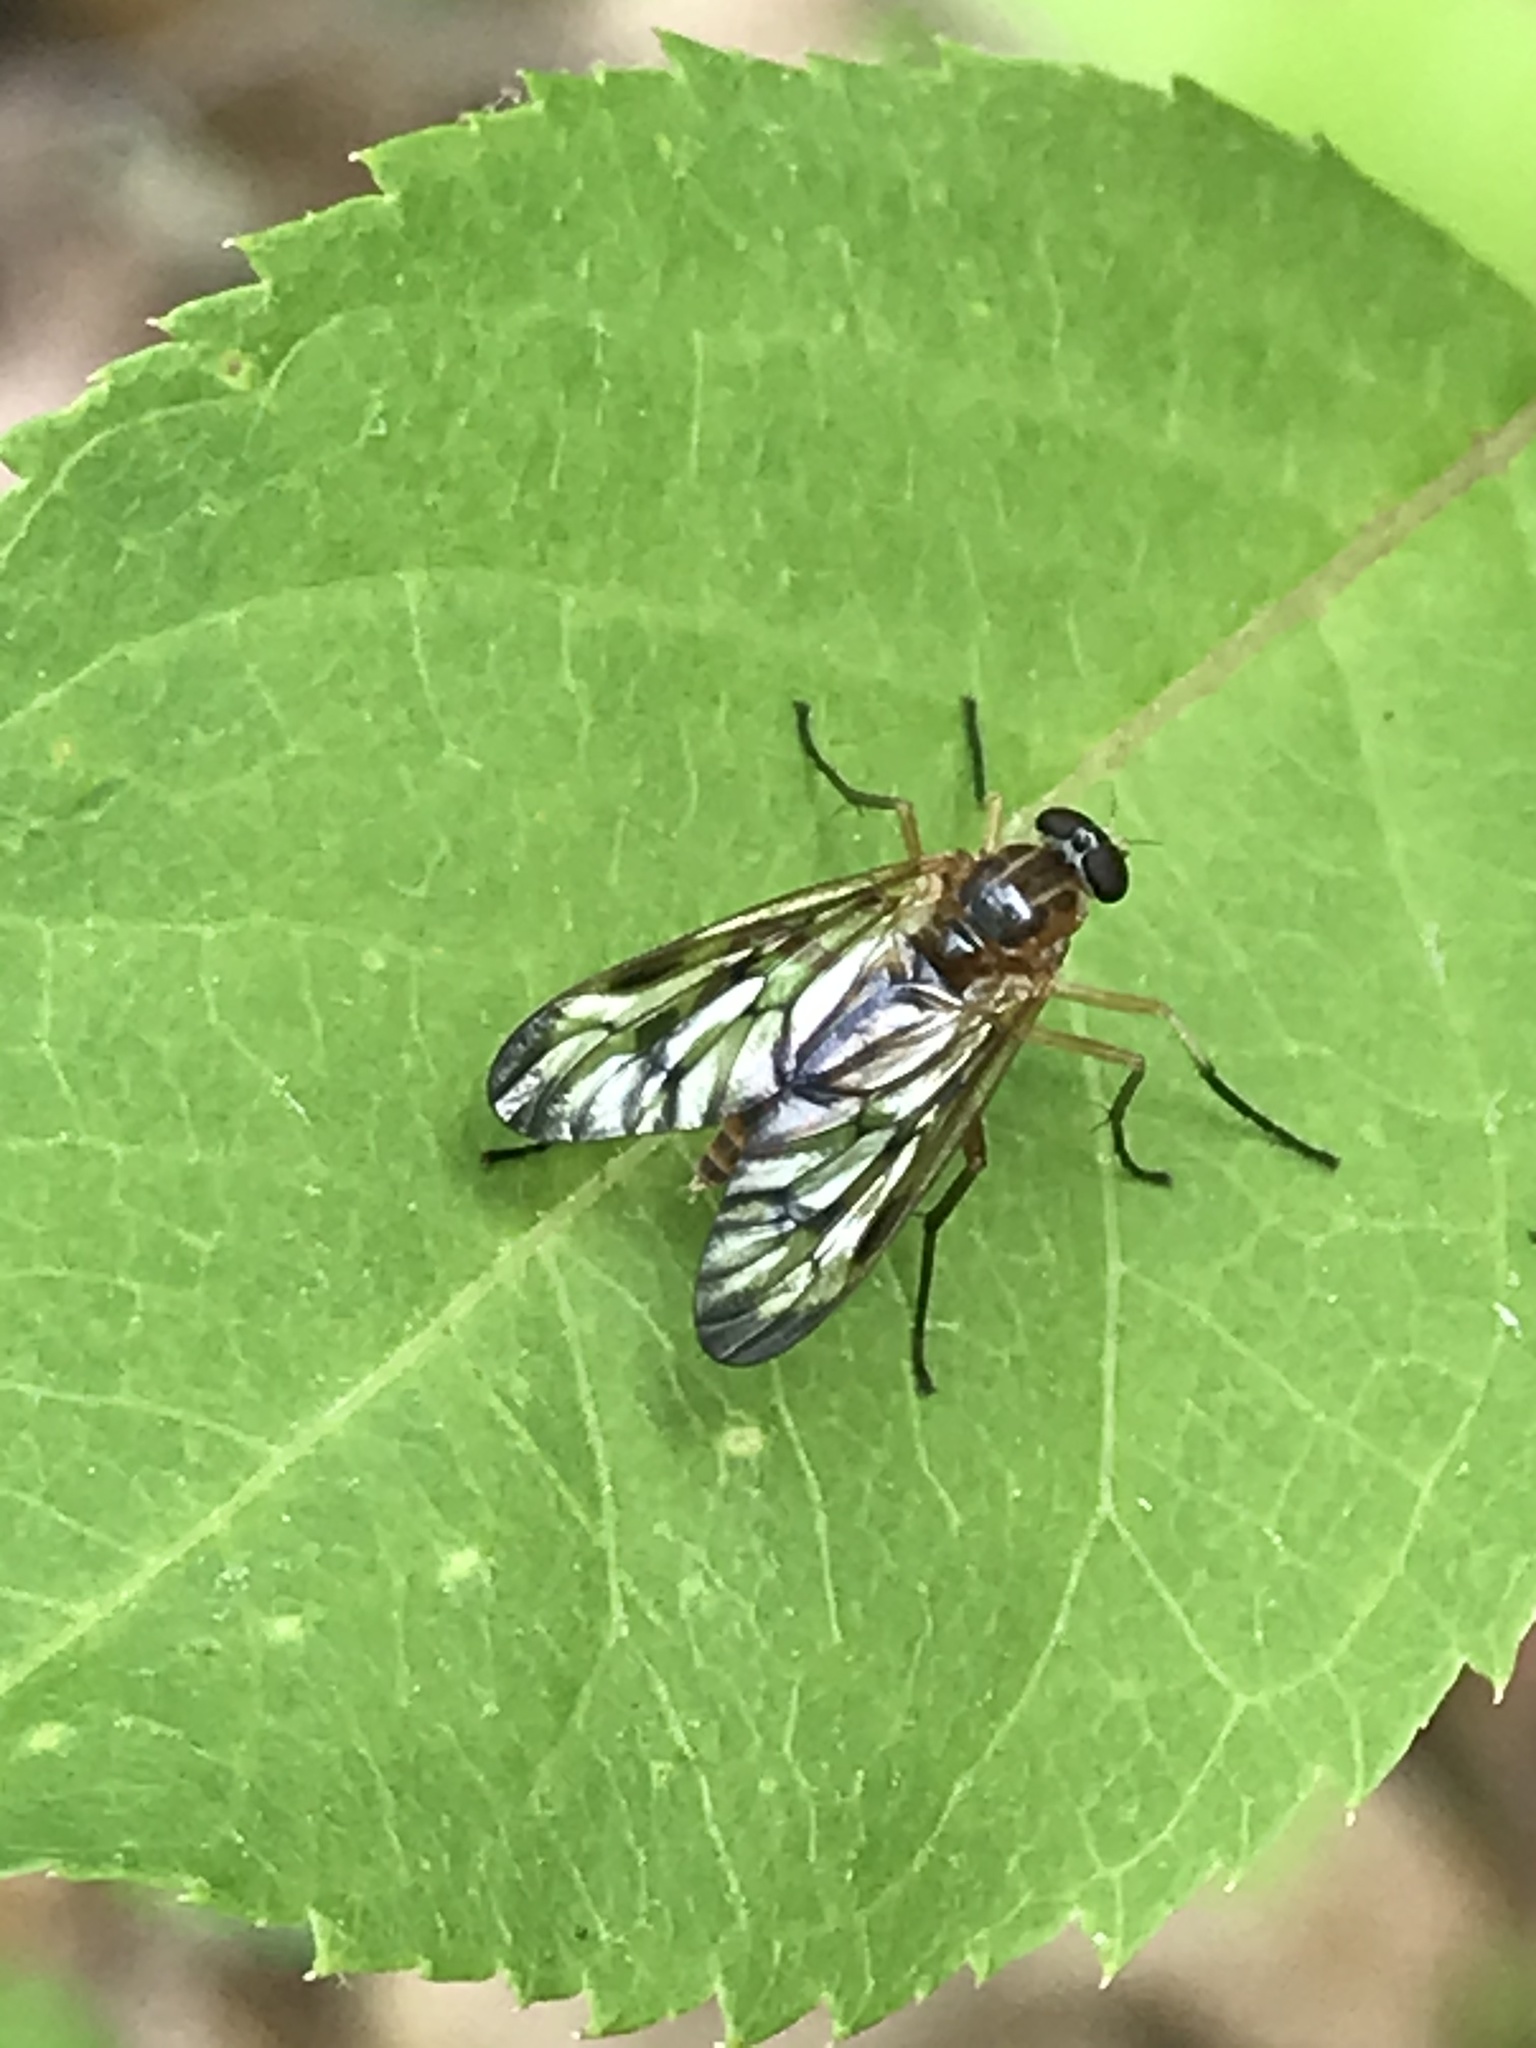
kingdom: Animalia
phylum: Arthropoda
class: Insecta
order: Diptera
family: Rhagionidae
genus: Rhagio
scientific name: Rhagio albicornis
